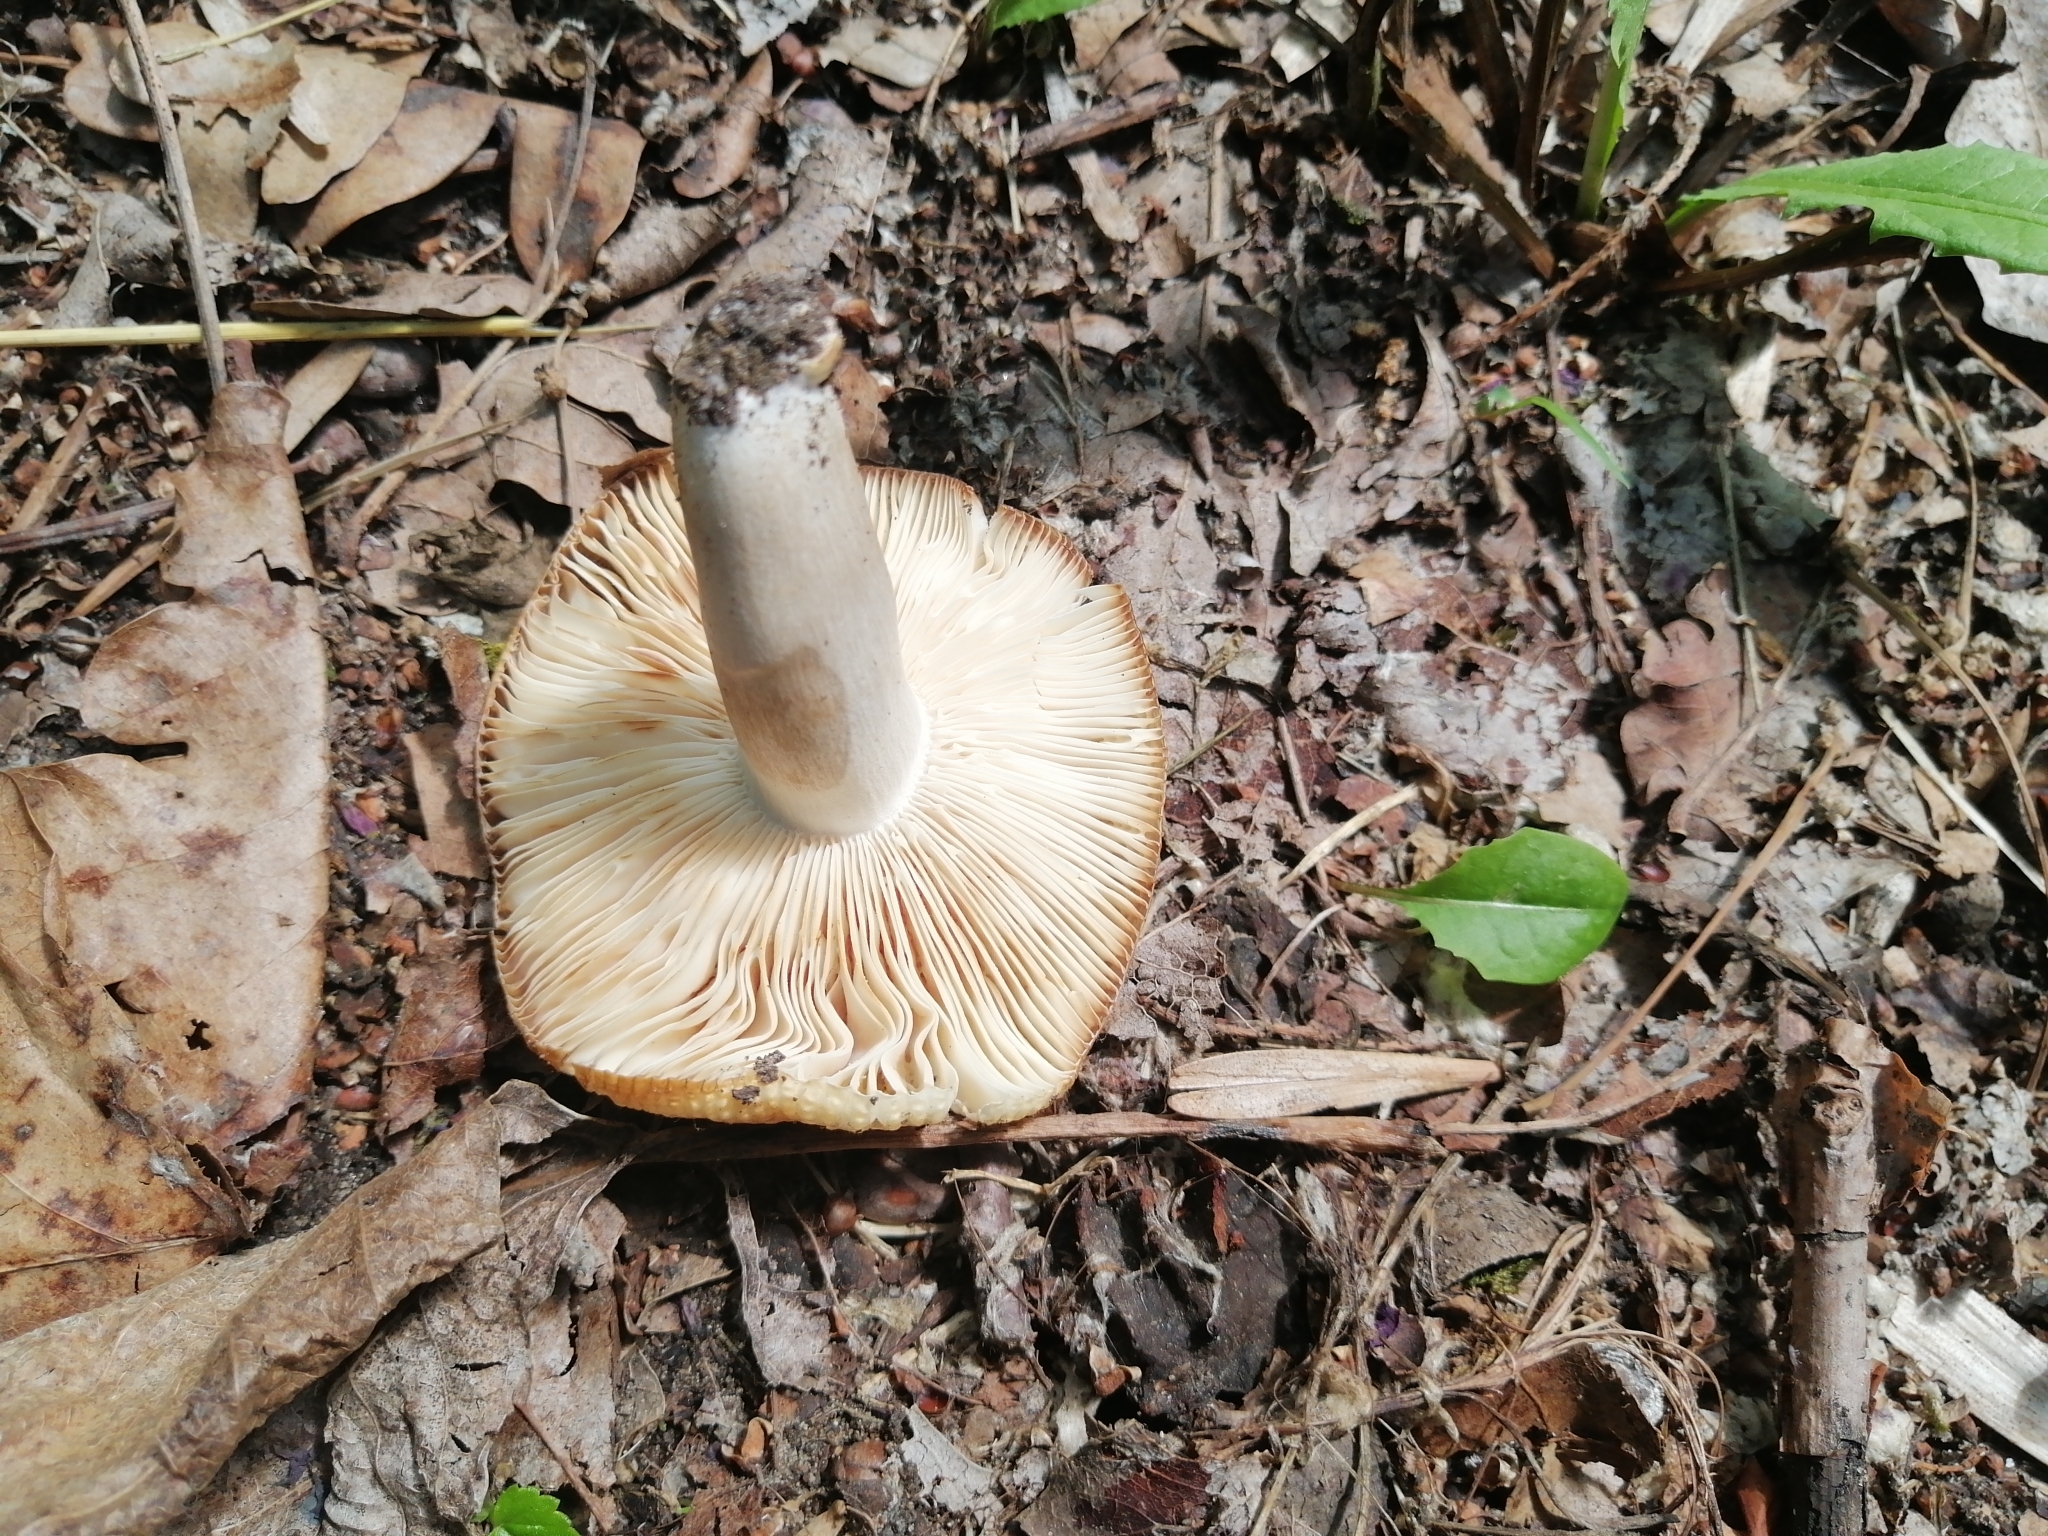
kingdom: Fungi
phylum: Basidiomycota
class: Agaricomycetes
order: Russulales
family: Russulaceae
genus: Russula
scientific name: Russula praetervisa
